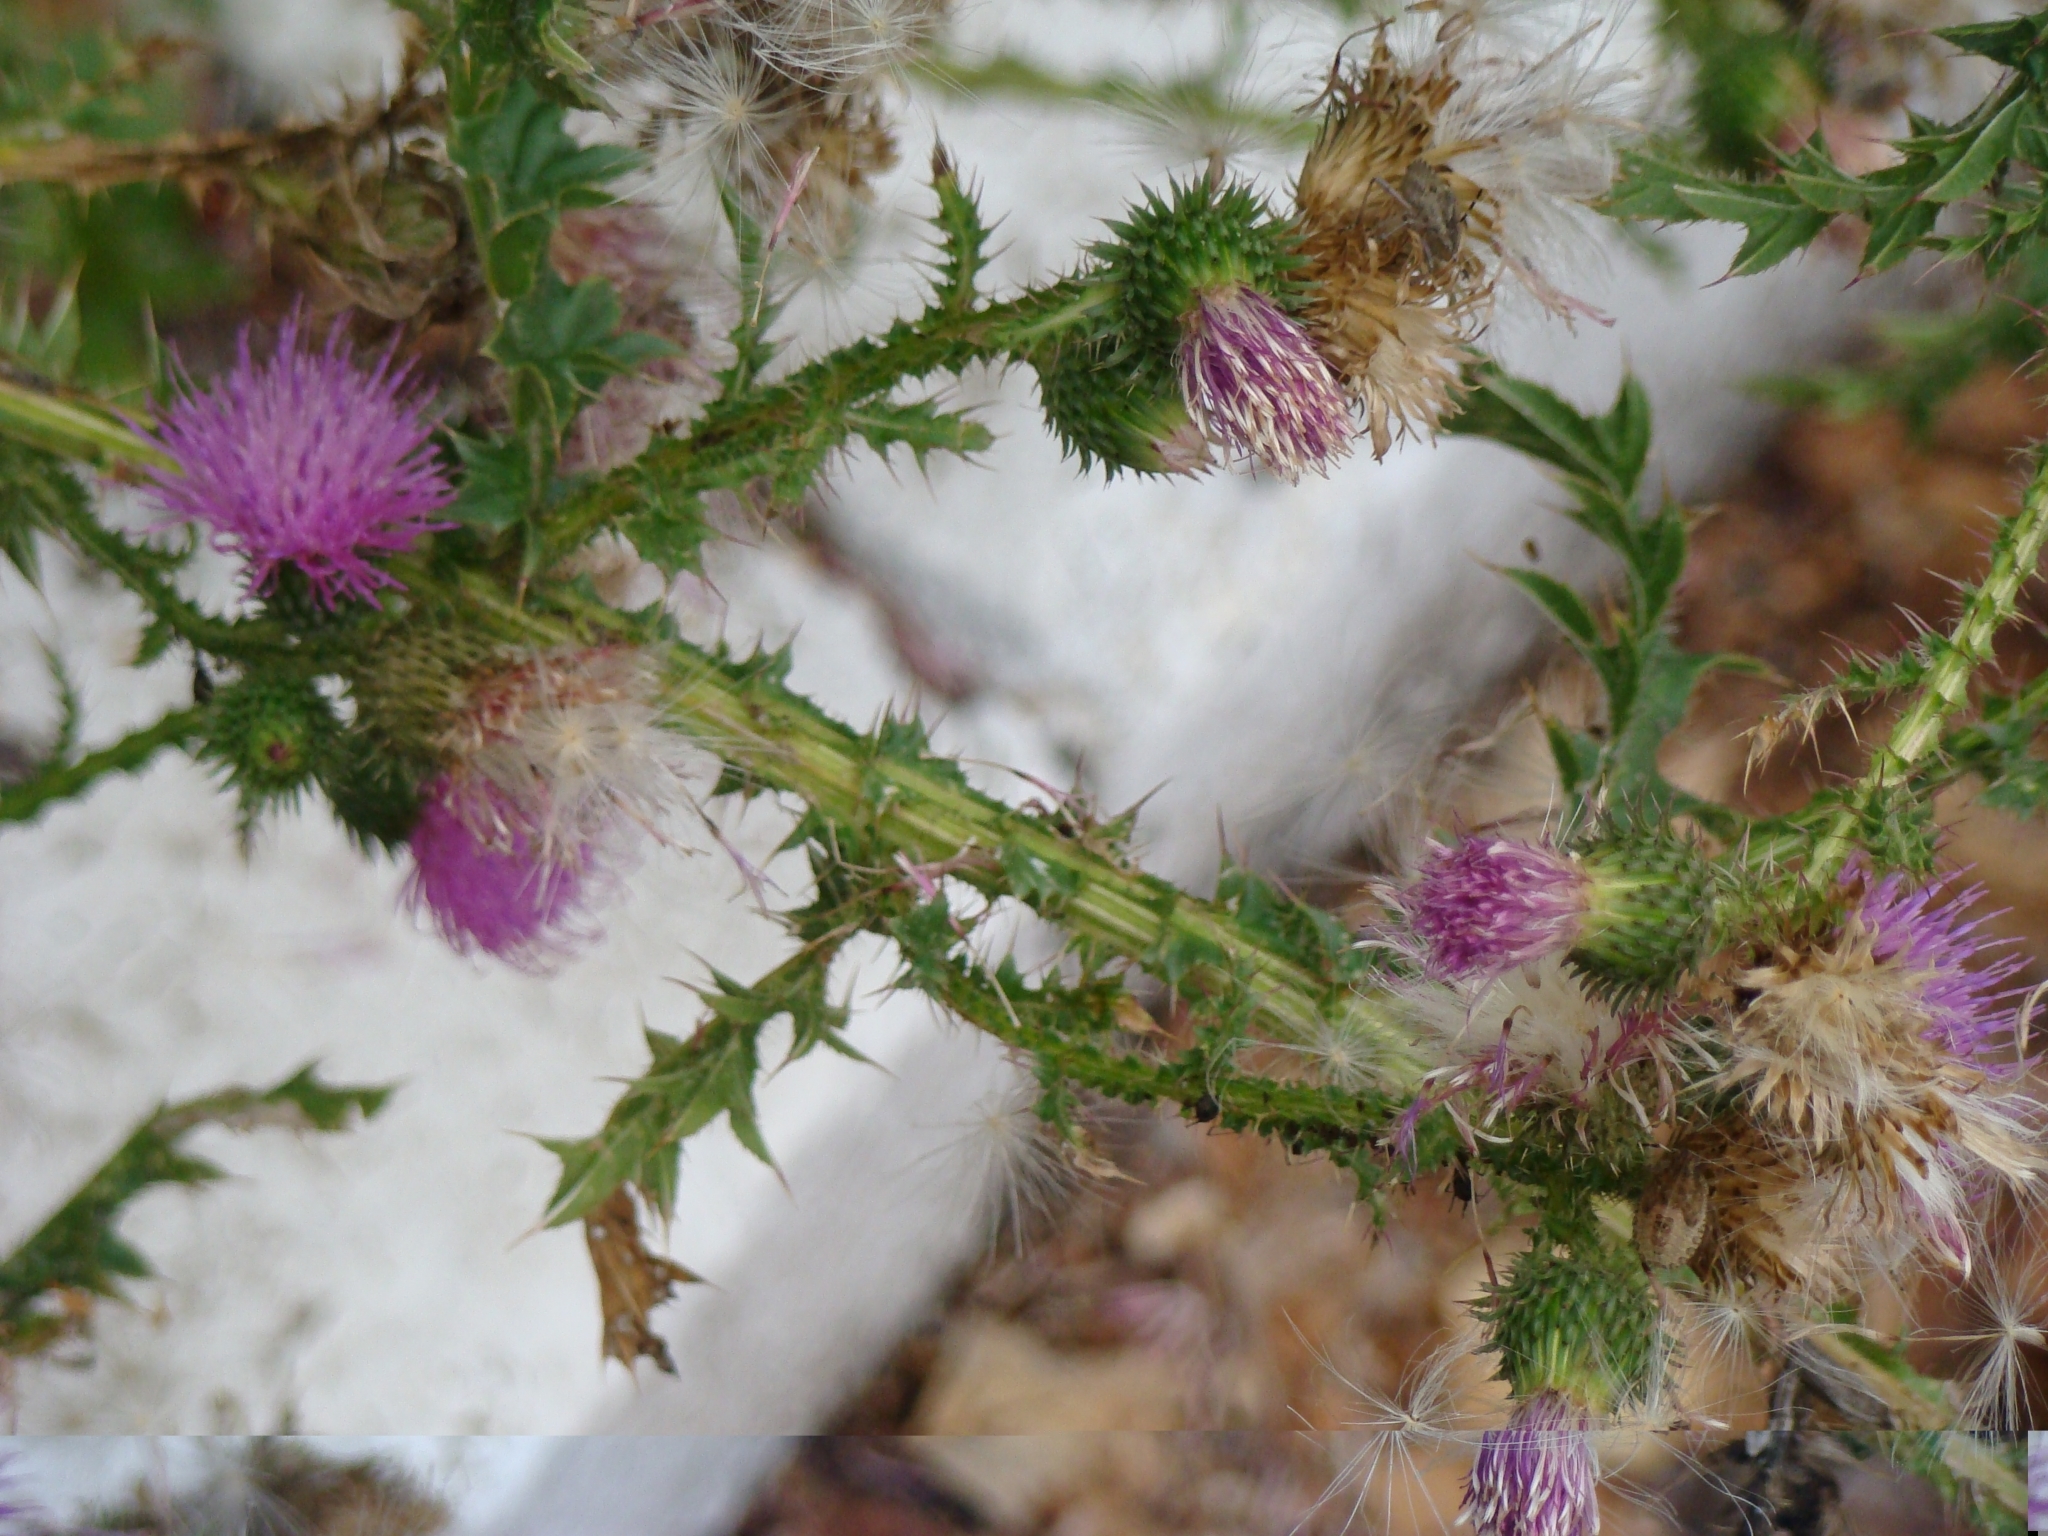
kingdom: Plantae
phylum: Tracheophyta
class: Magnoliopsida
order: Asterales
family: Asteraceae
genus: Carduus
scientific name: Carduus crispus
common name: Welted thistle
